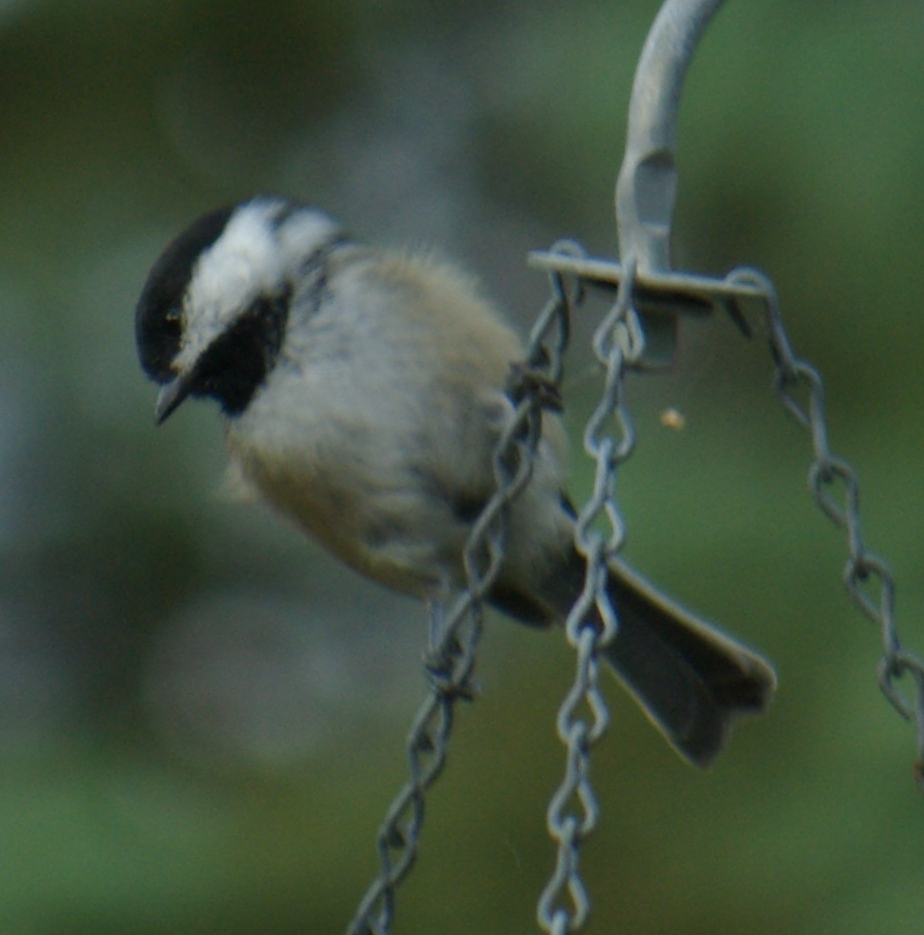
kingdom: Animalia
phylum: Chordata
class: Aves
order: Passeriformes
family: Paridae
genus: Poecile
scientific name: Poecile atricapillus
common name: Black-capped chickadee
